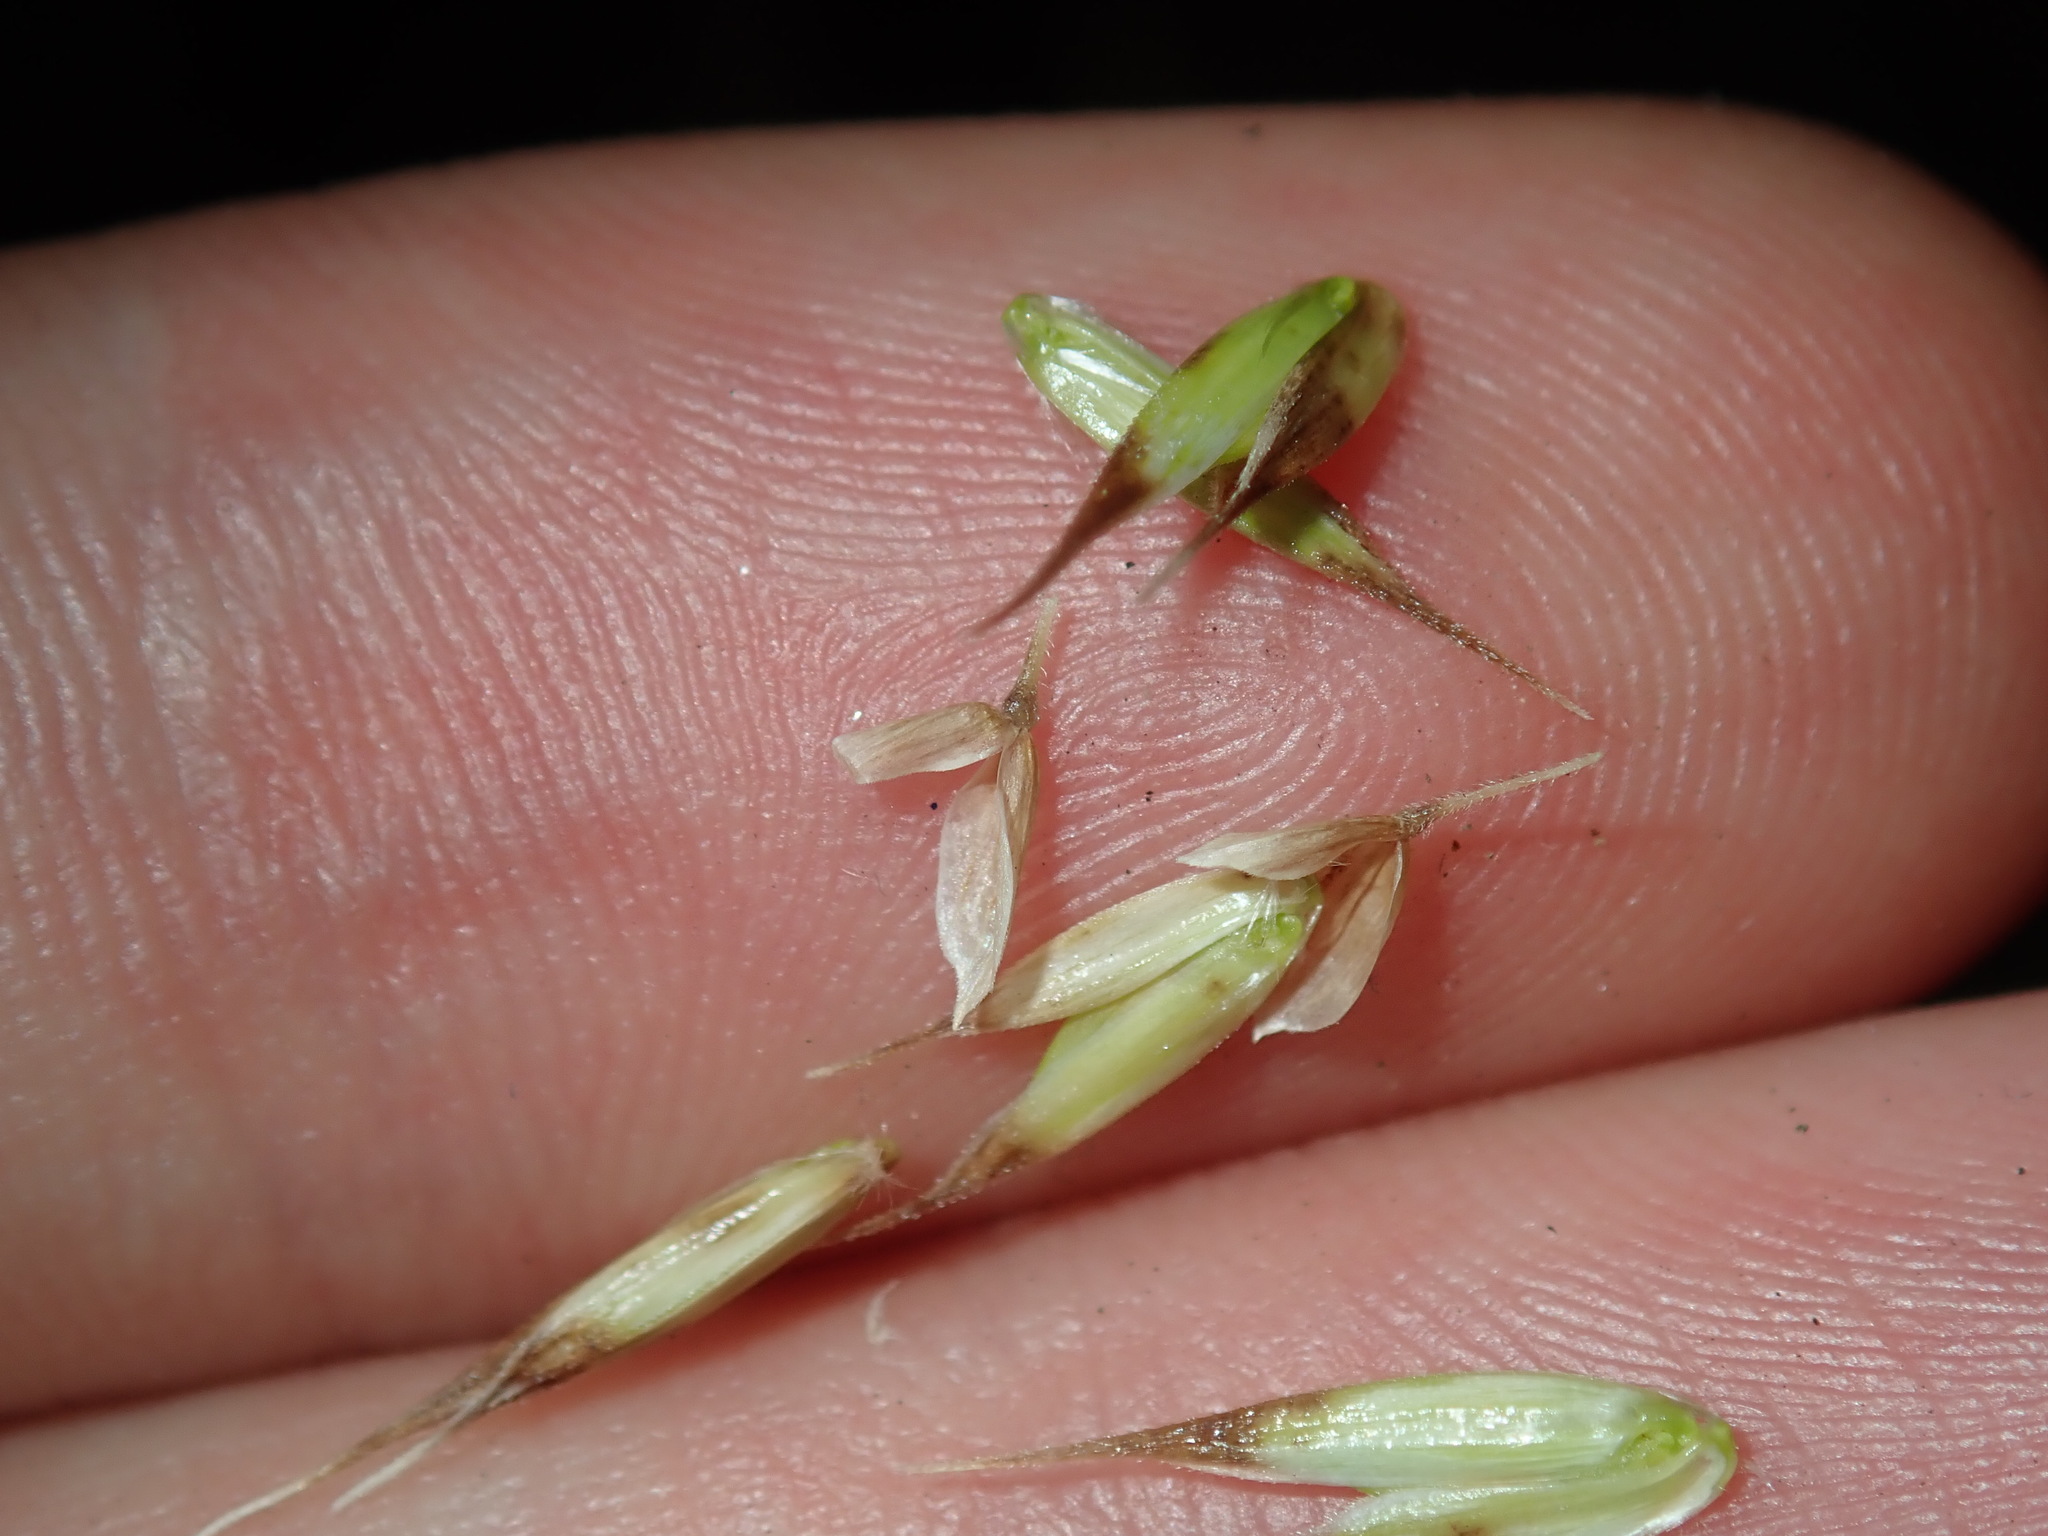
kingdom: Plantae
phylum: Tracheophyta
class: Liliopsida
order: Poales
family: Poaceae
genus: Ehrharta
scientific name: Ehrharta longiflora
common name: Longflowered veldtgrass
